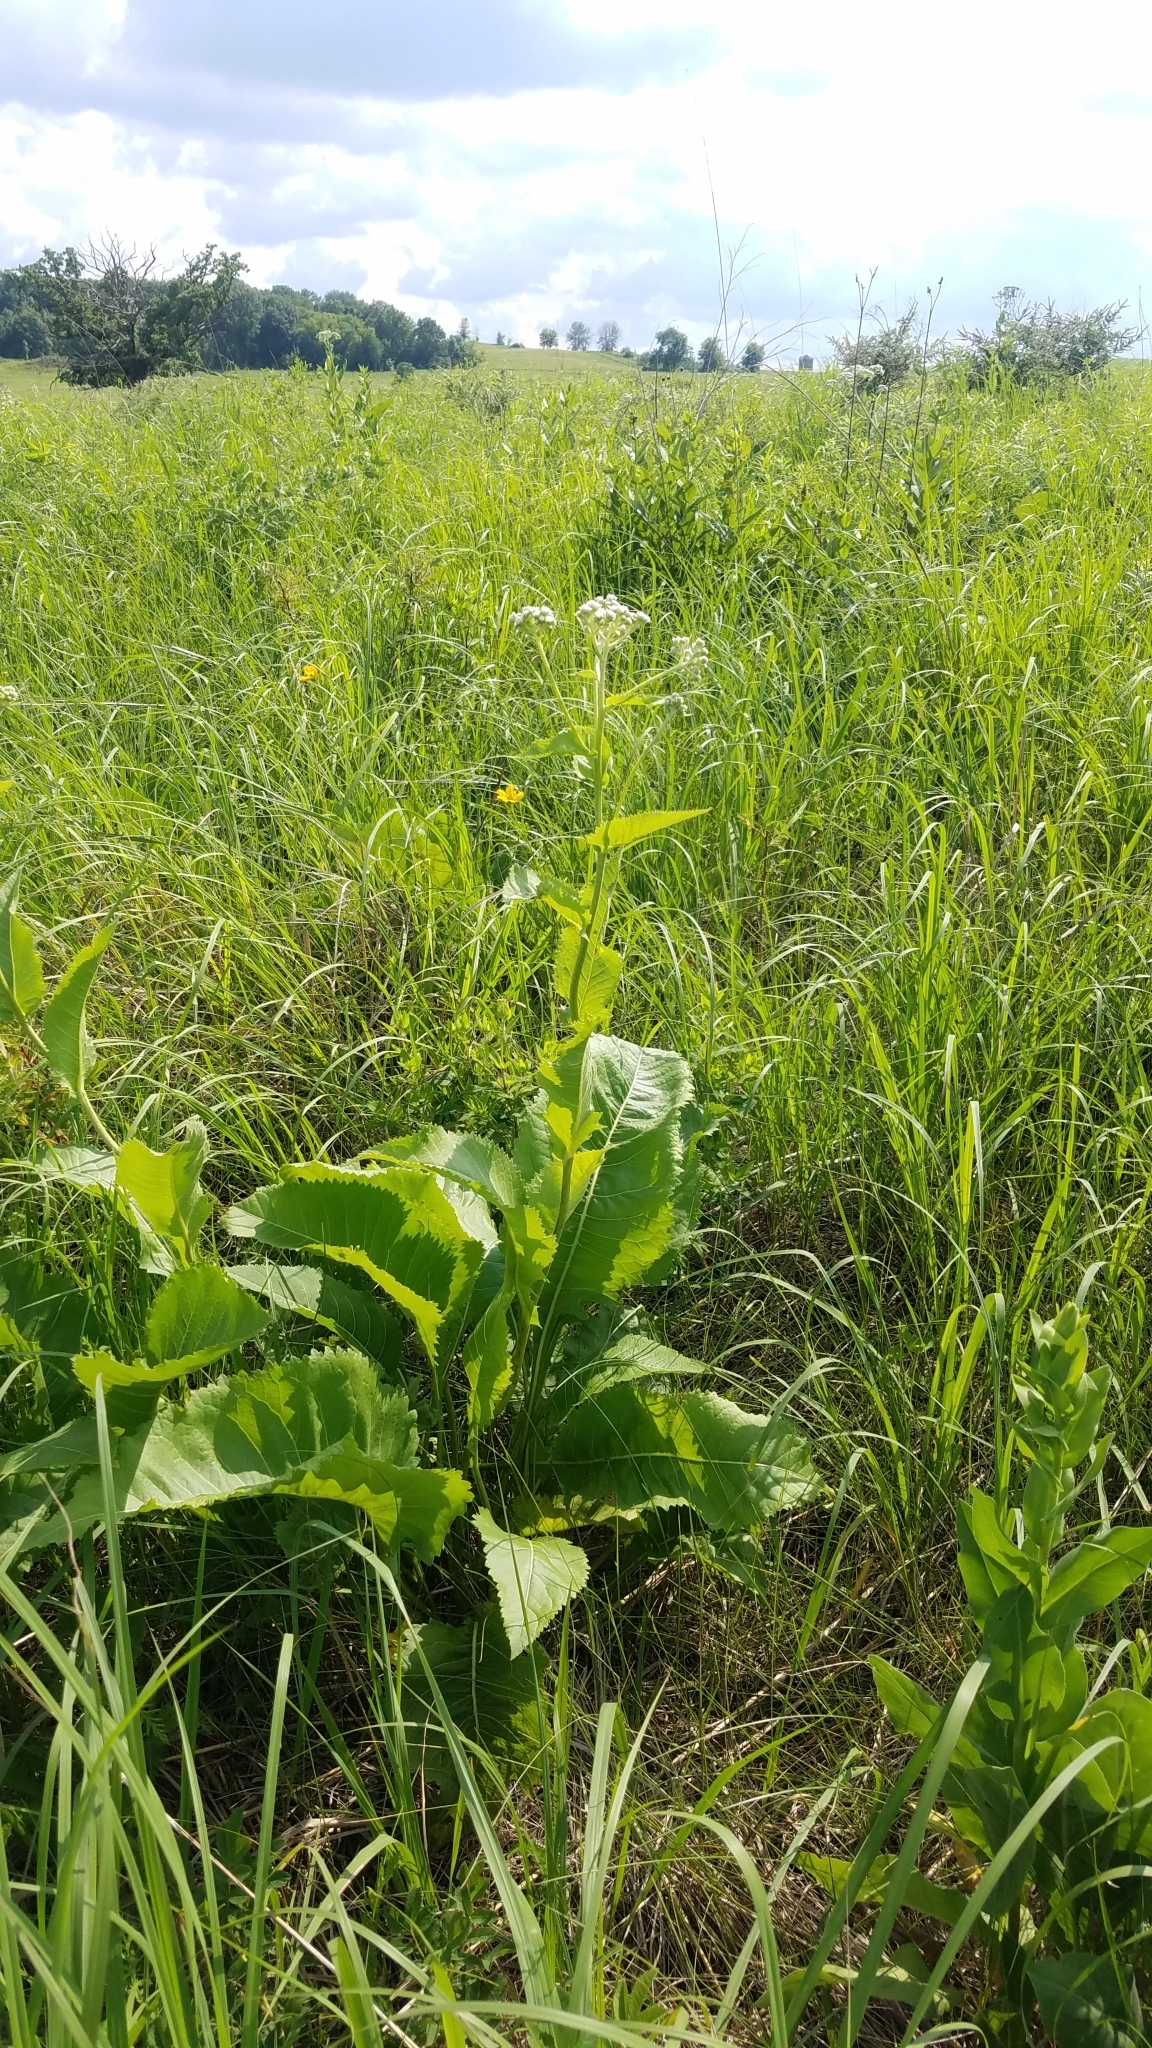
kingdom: Plantae
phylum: Tracheophyta
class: Magnoliopsida
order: Asterales
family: Asteraceae
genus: Parthenium
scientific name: Parthenium integrifolium
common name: American feverfew
